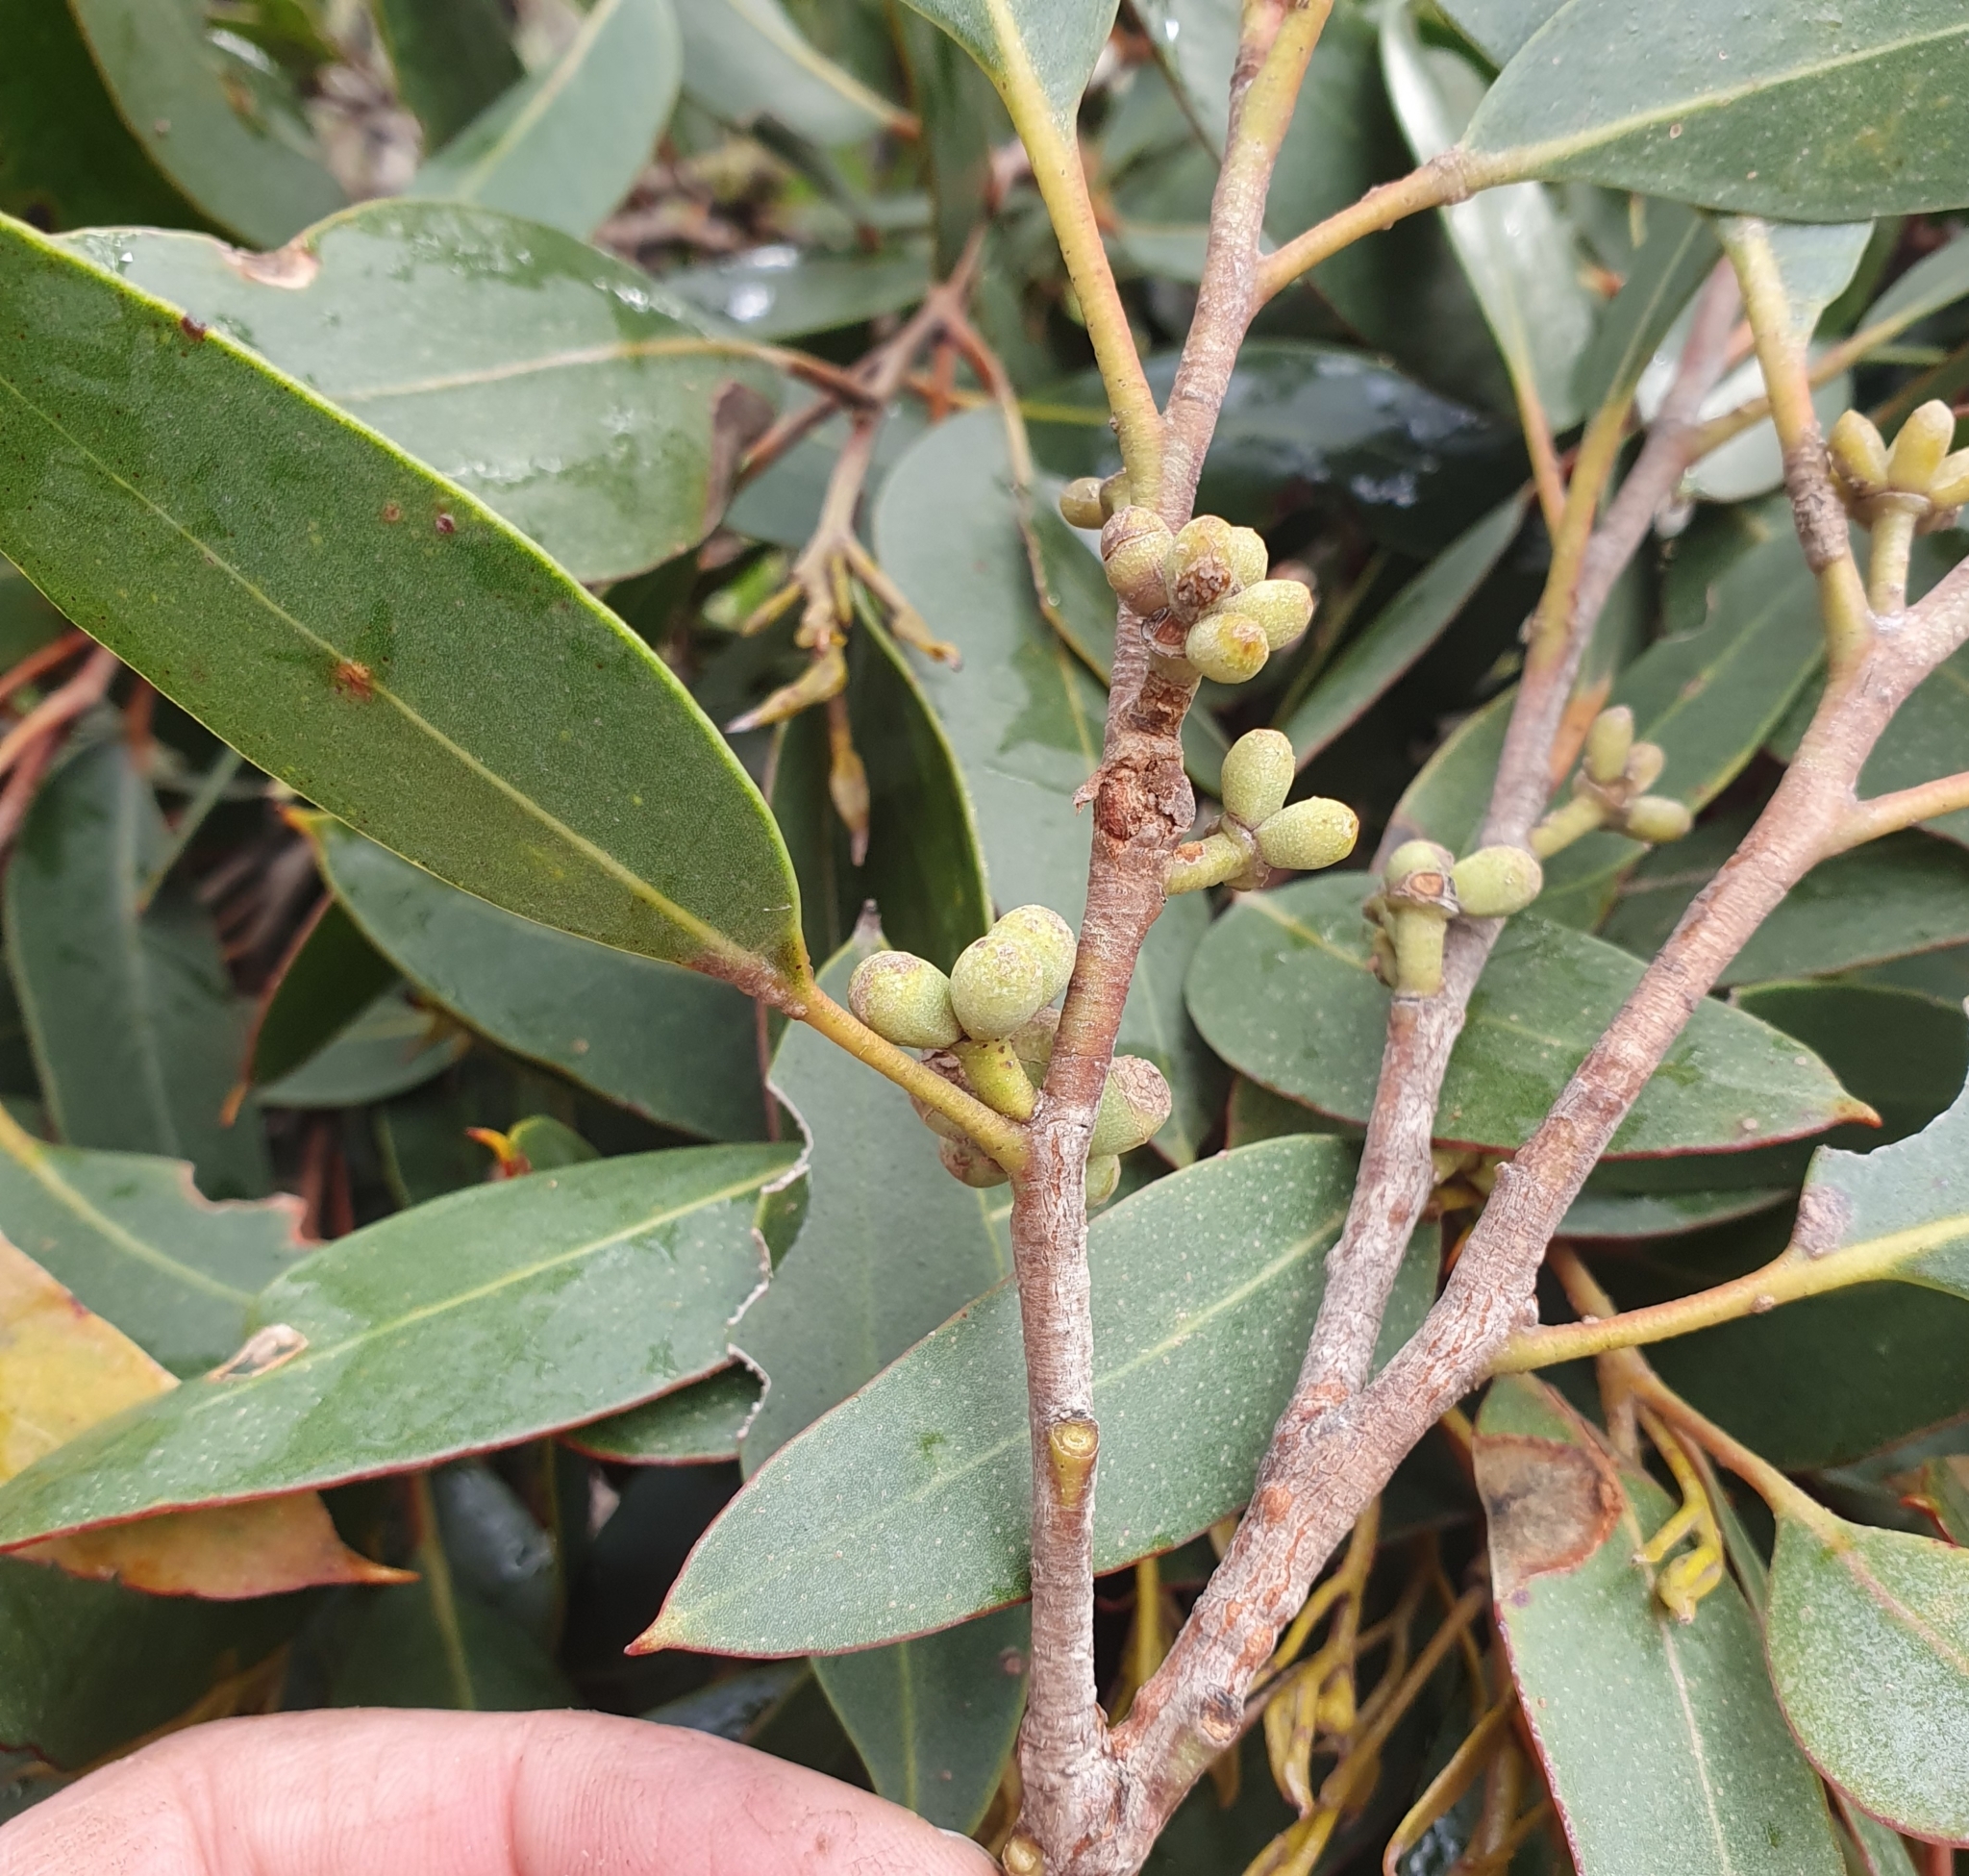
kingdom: Plantae
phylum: Tracheophyta
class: Magnoliopsida
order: Myrtales
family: Myrtaceae
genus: Eucalyptus
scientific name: Eucalyptus camfieldii
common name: Camfield's stringybark
